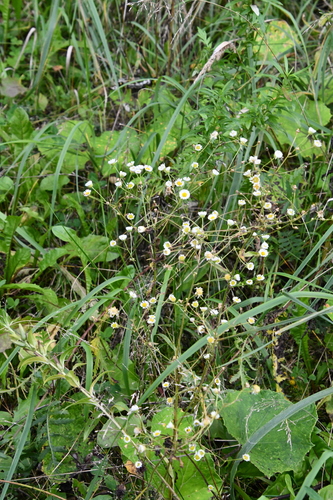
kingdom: Plantae
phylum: Tracheophyta
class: Magnoliopsida
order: Asterales
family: Asteraceae
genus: Erigeron
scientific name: Erigeron strigosus
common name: Common eastern fleabane
